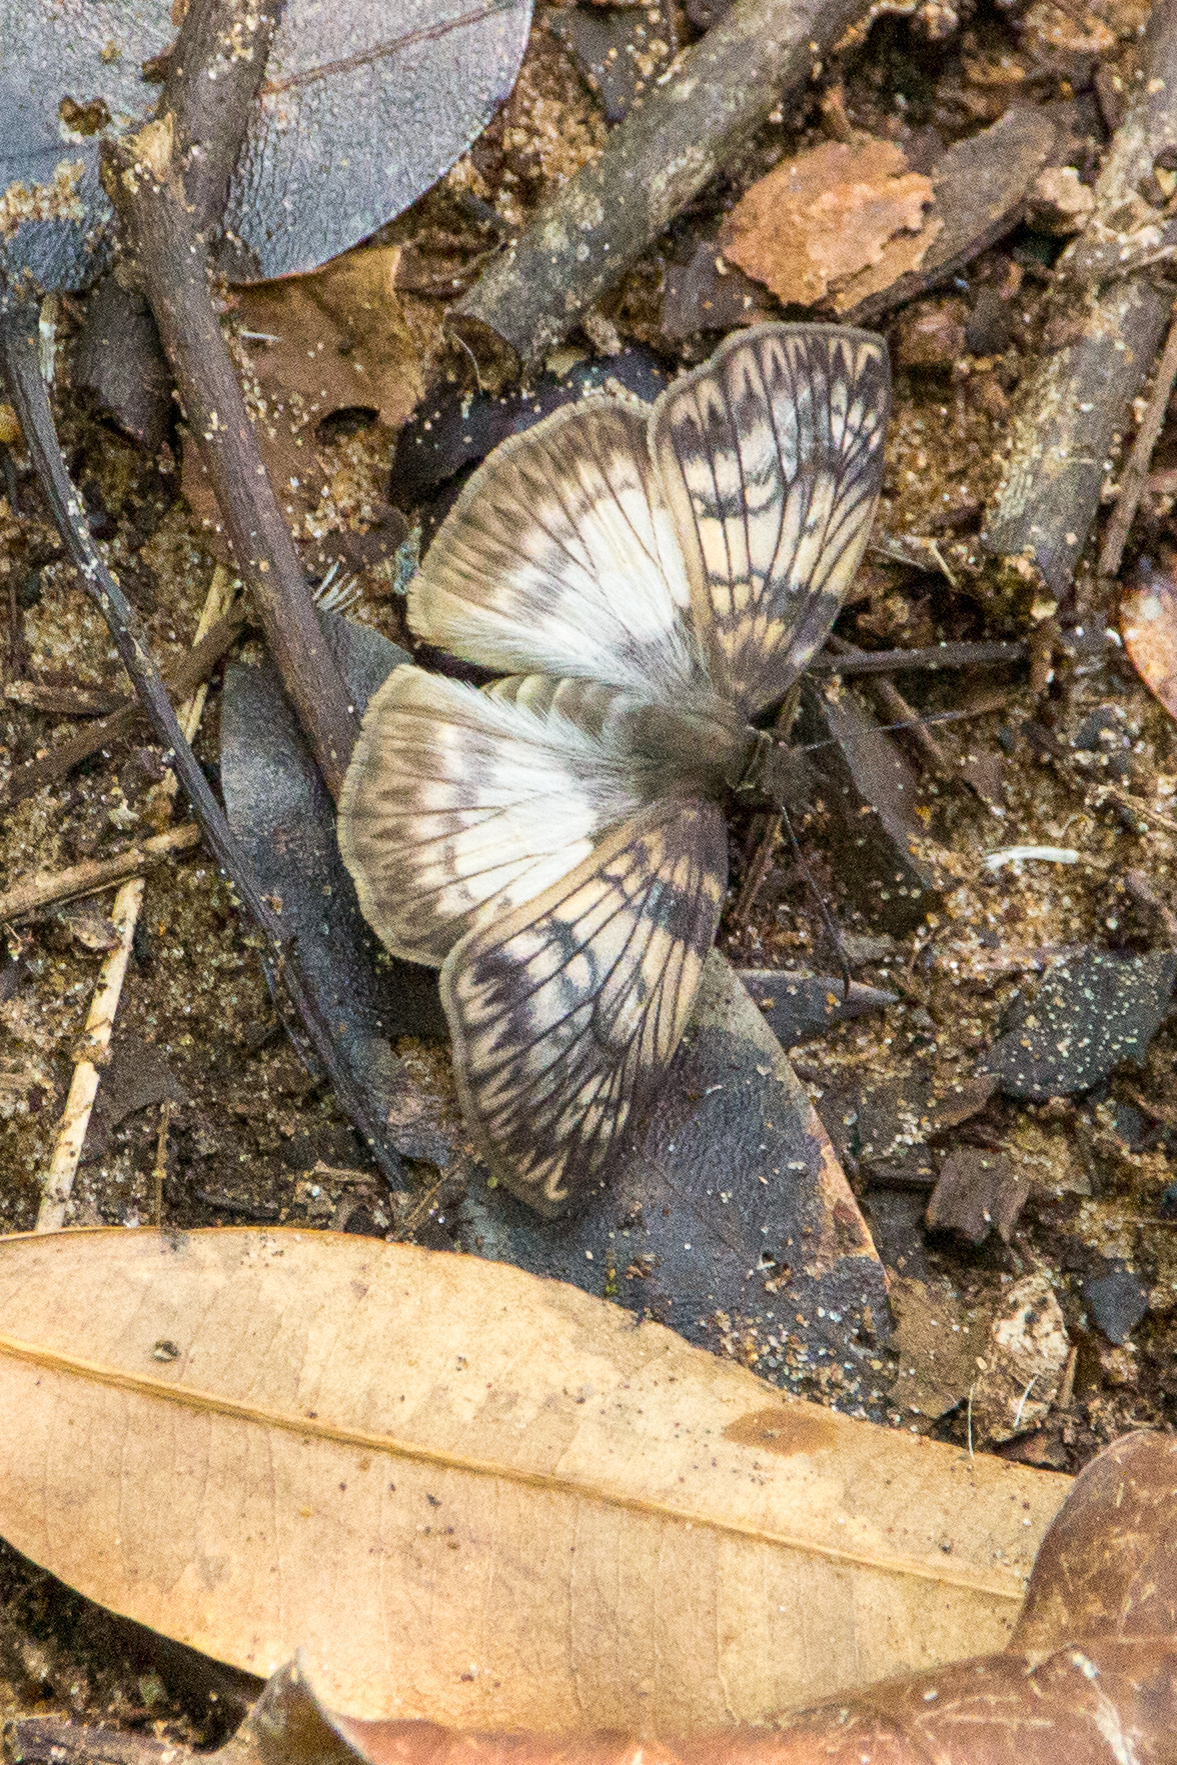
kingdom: Animalia
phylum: Arthropoda
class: Insecta
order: Lepidoptera
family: Hesperiidae
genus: Mylon
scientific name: Mylon maimon
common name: Common mylon
